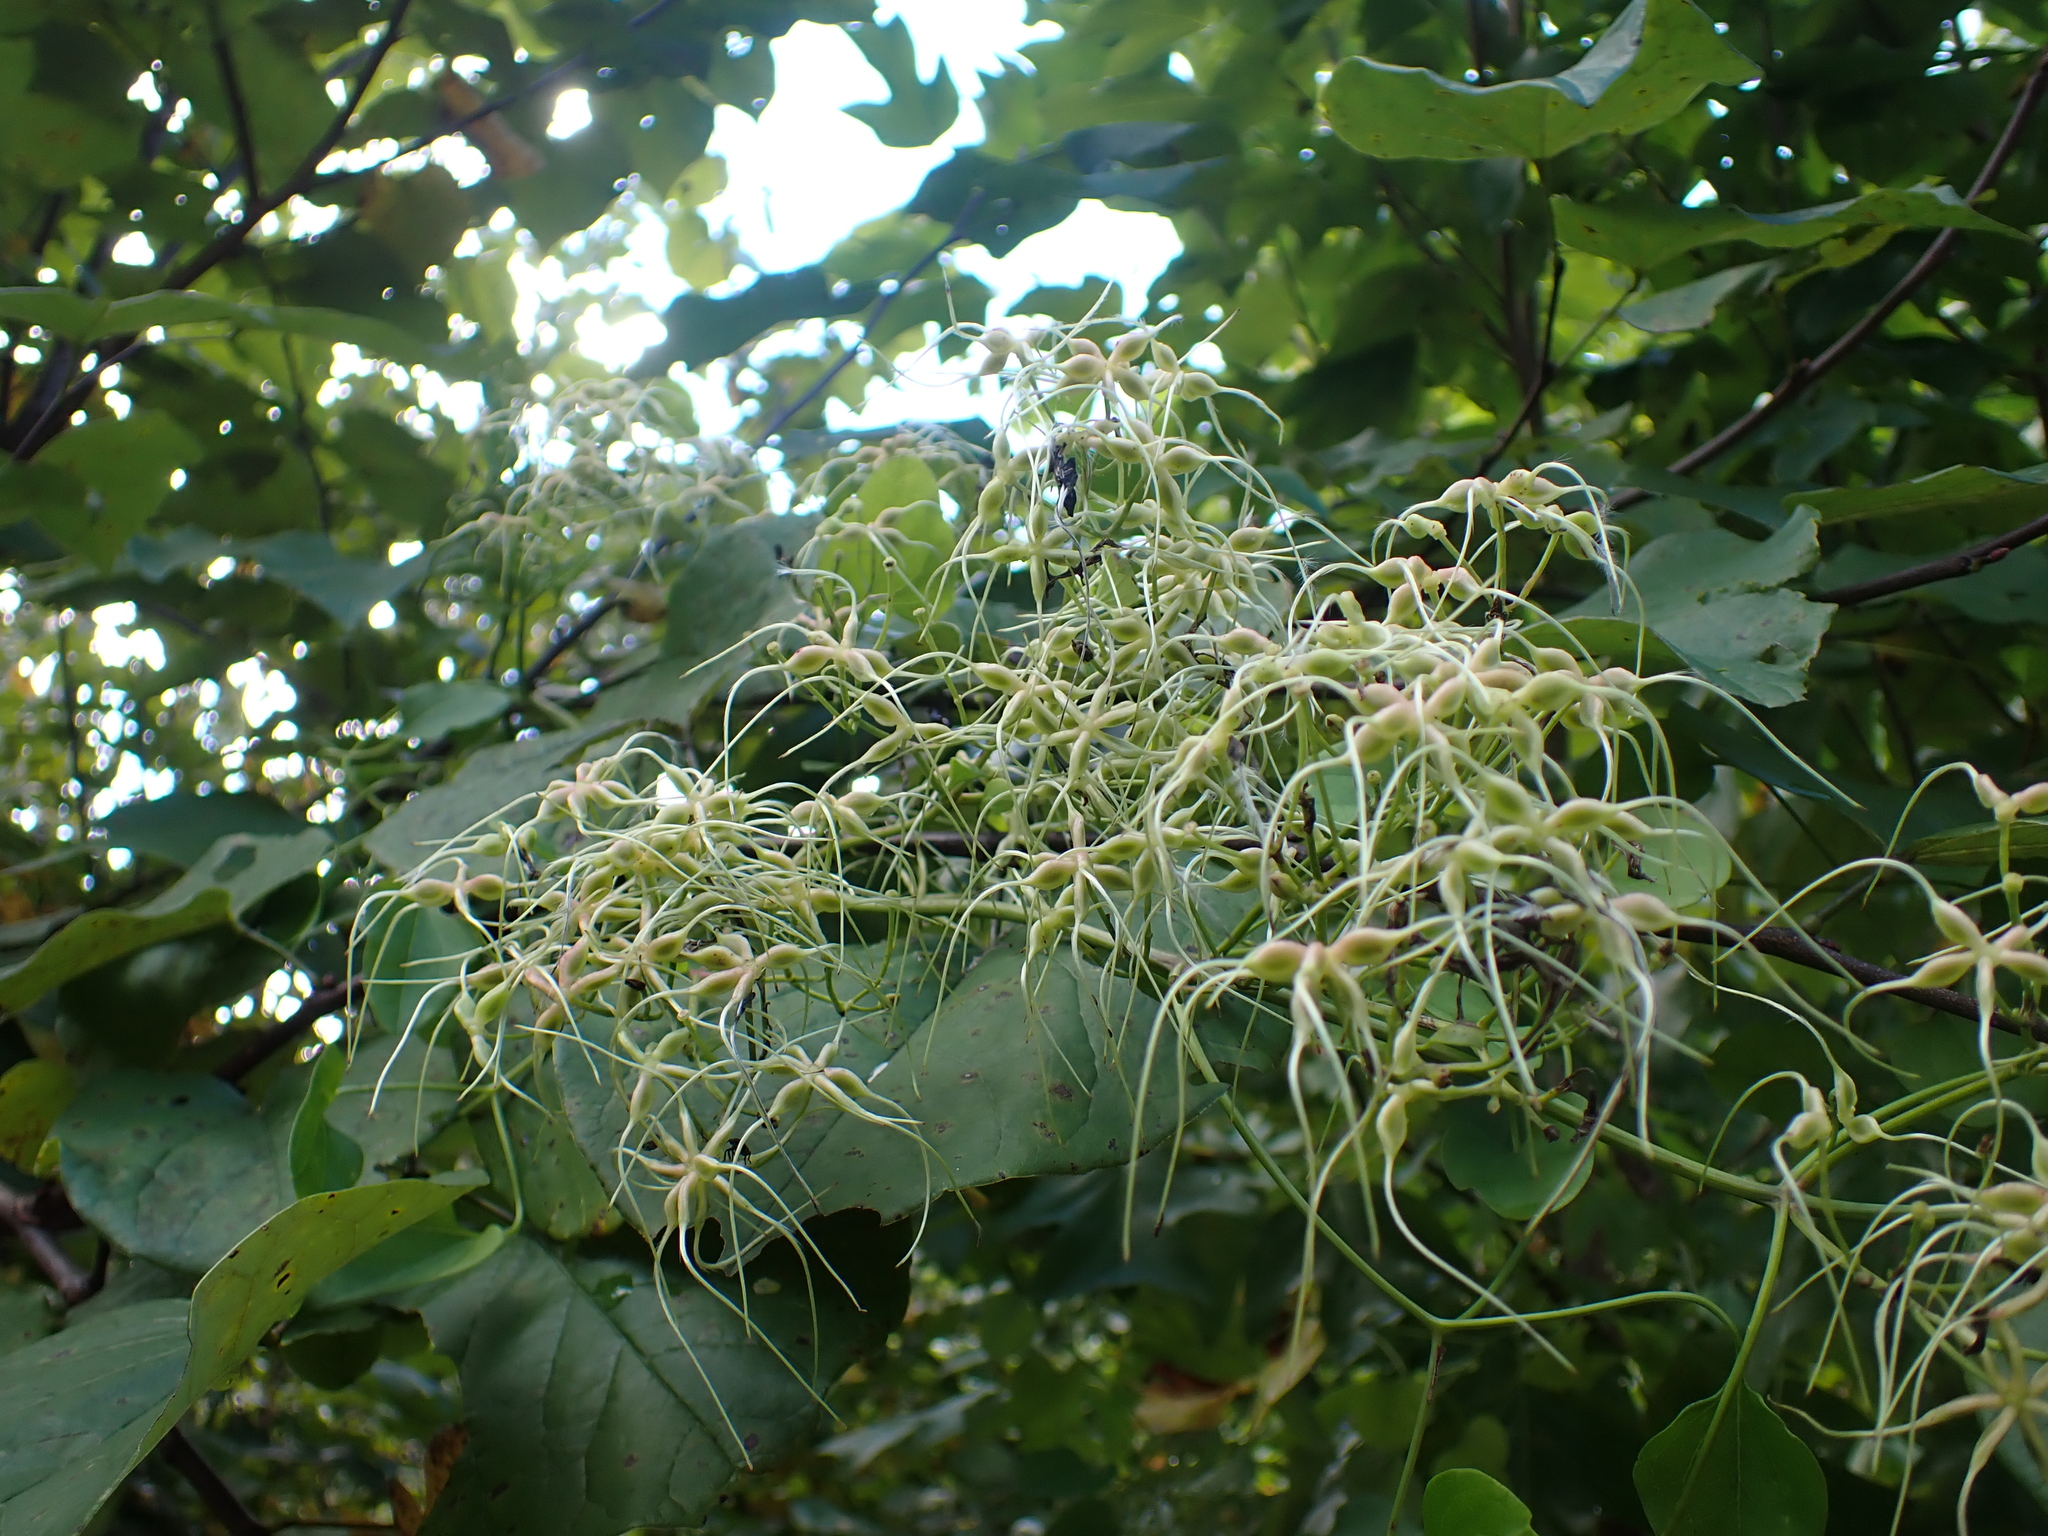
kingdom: Plantae
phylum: Tracheophyta
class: Magnoliopsida
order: Ranunculales
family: Ranunculaceae
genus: Clematis
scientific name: Clematis terniflora
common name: Sweet autumn clematis
